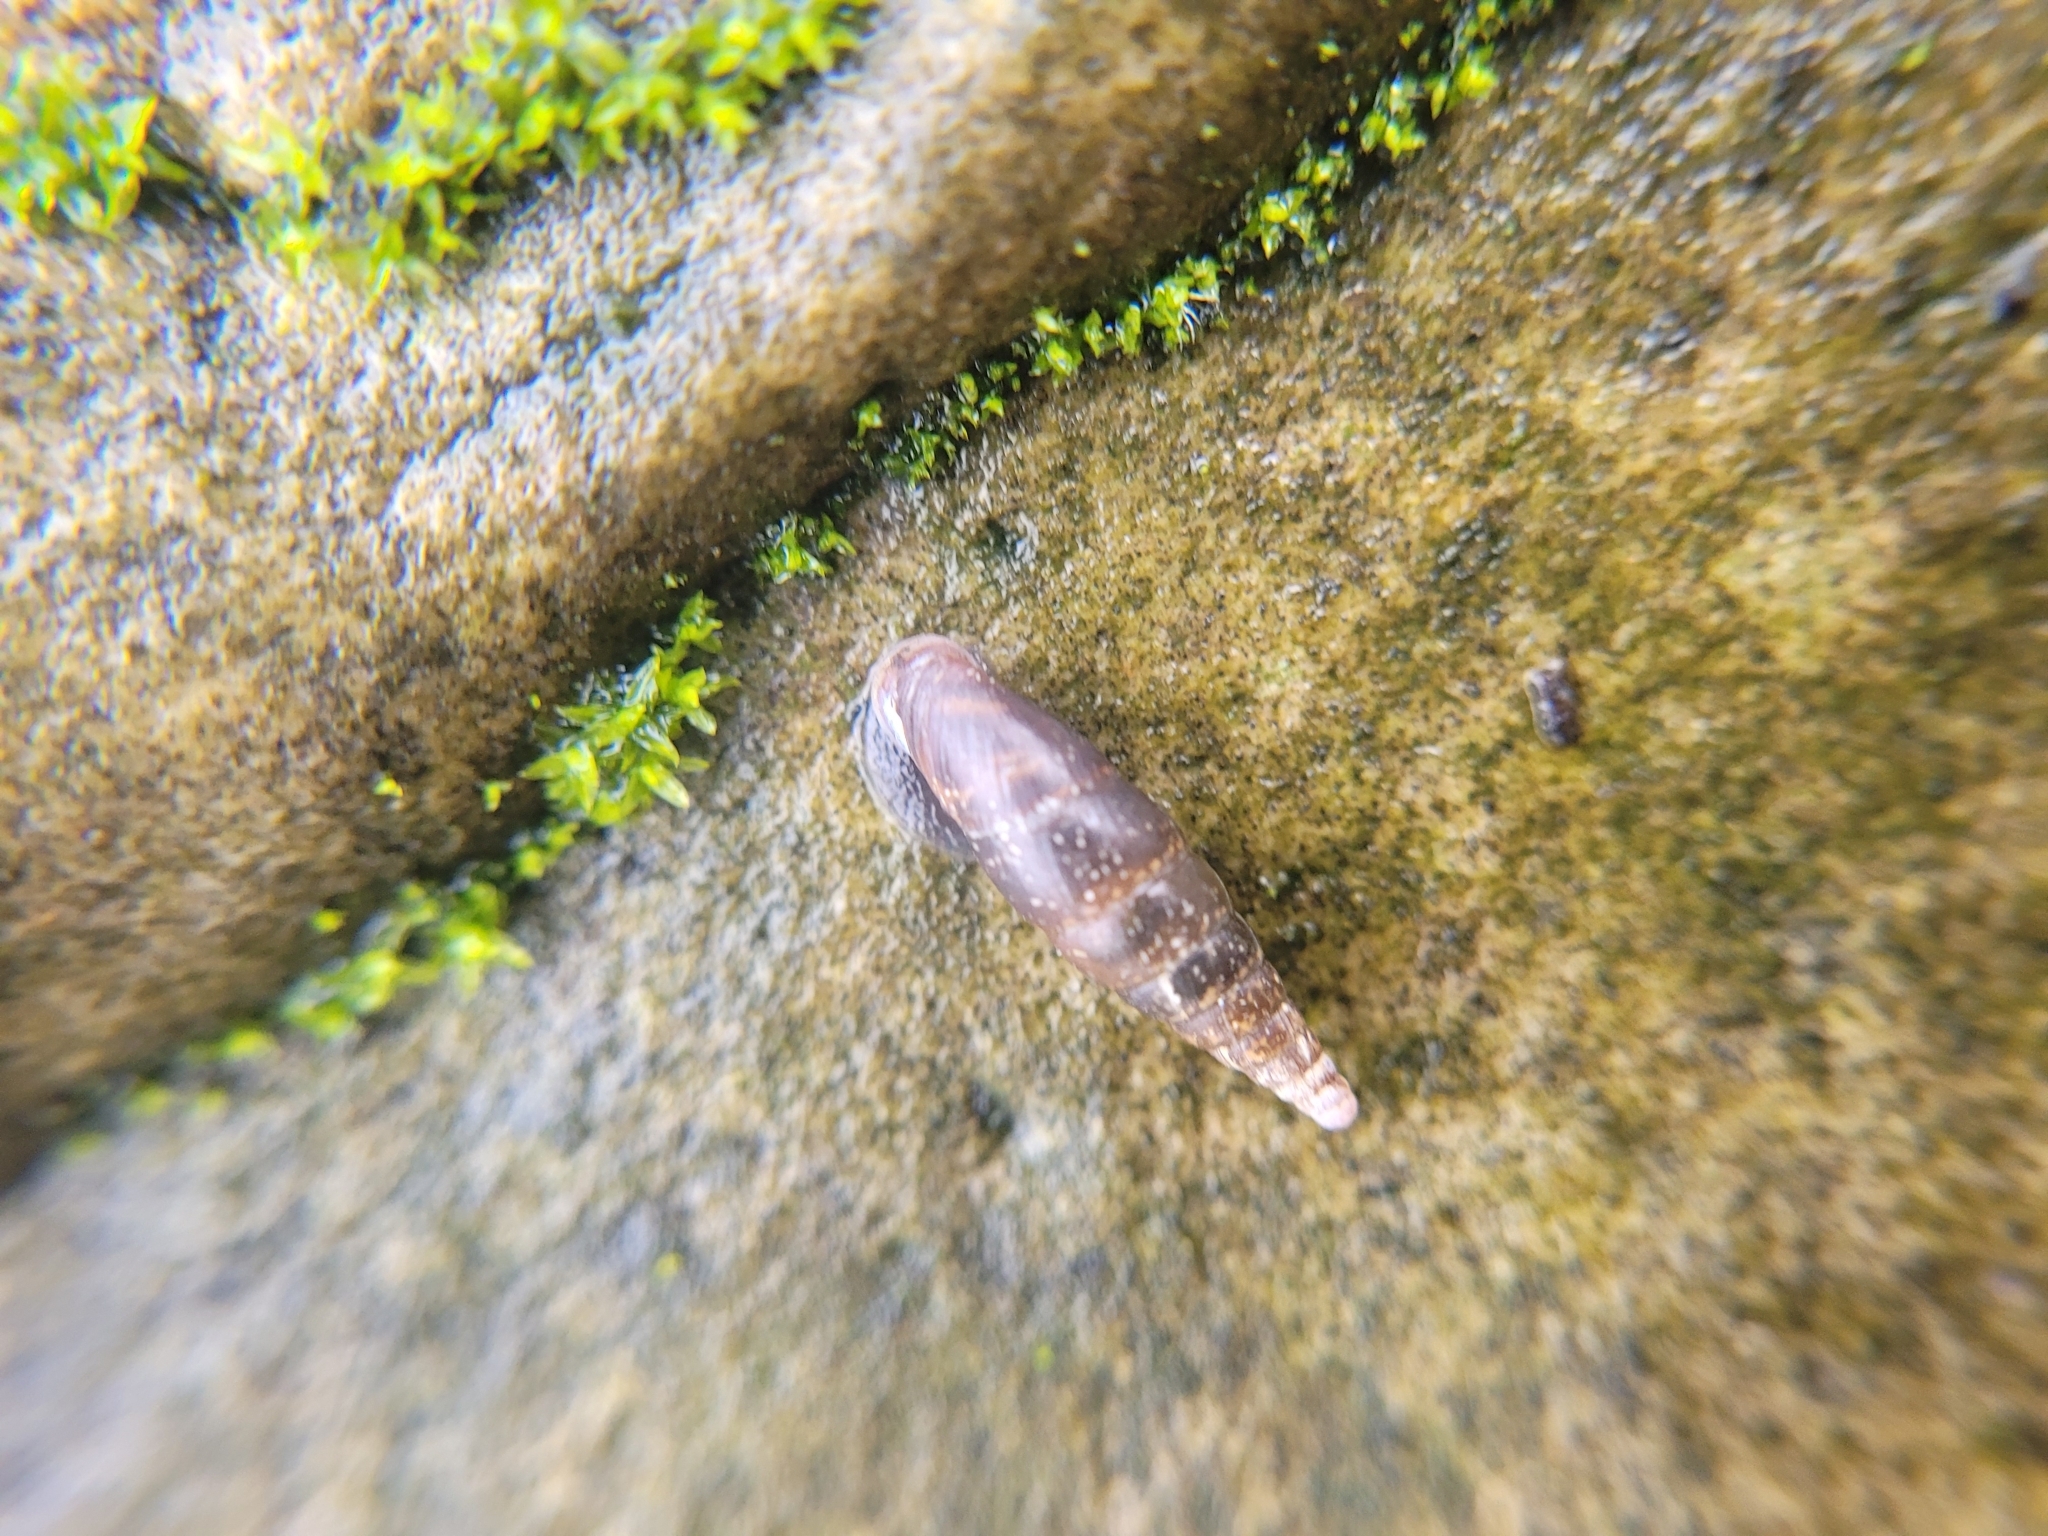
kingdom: Animalia
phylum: Mollusca
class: Gastropoda
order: Stylommatophora
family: Clausiliidae
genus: Cochlodina
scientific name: Cochlodina laminata
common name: Plaited door snail
